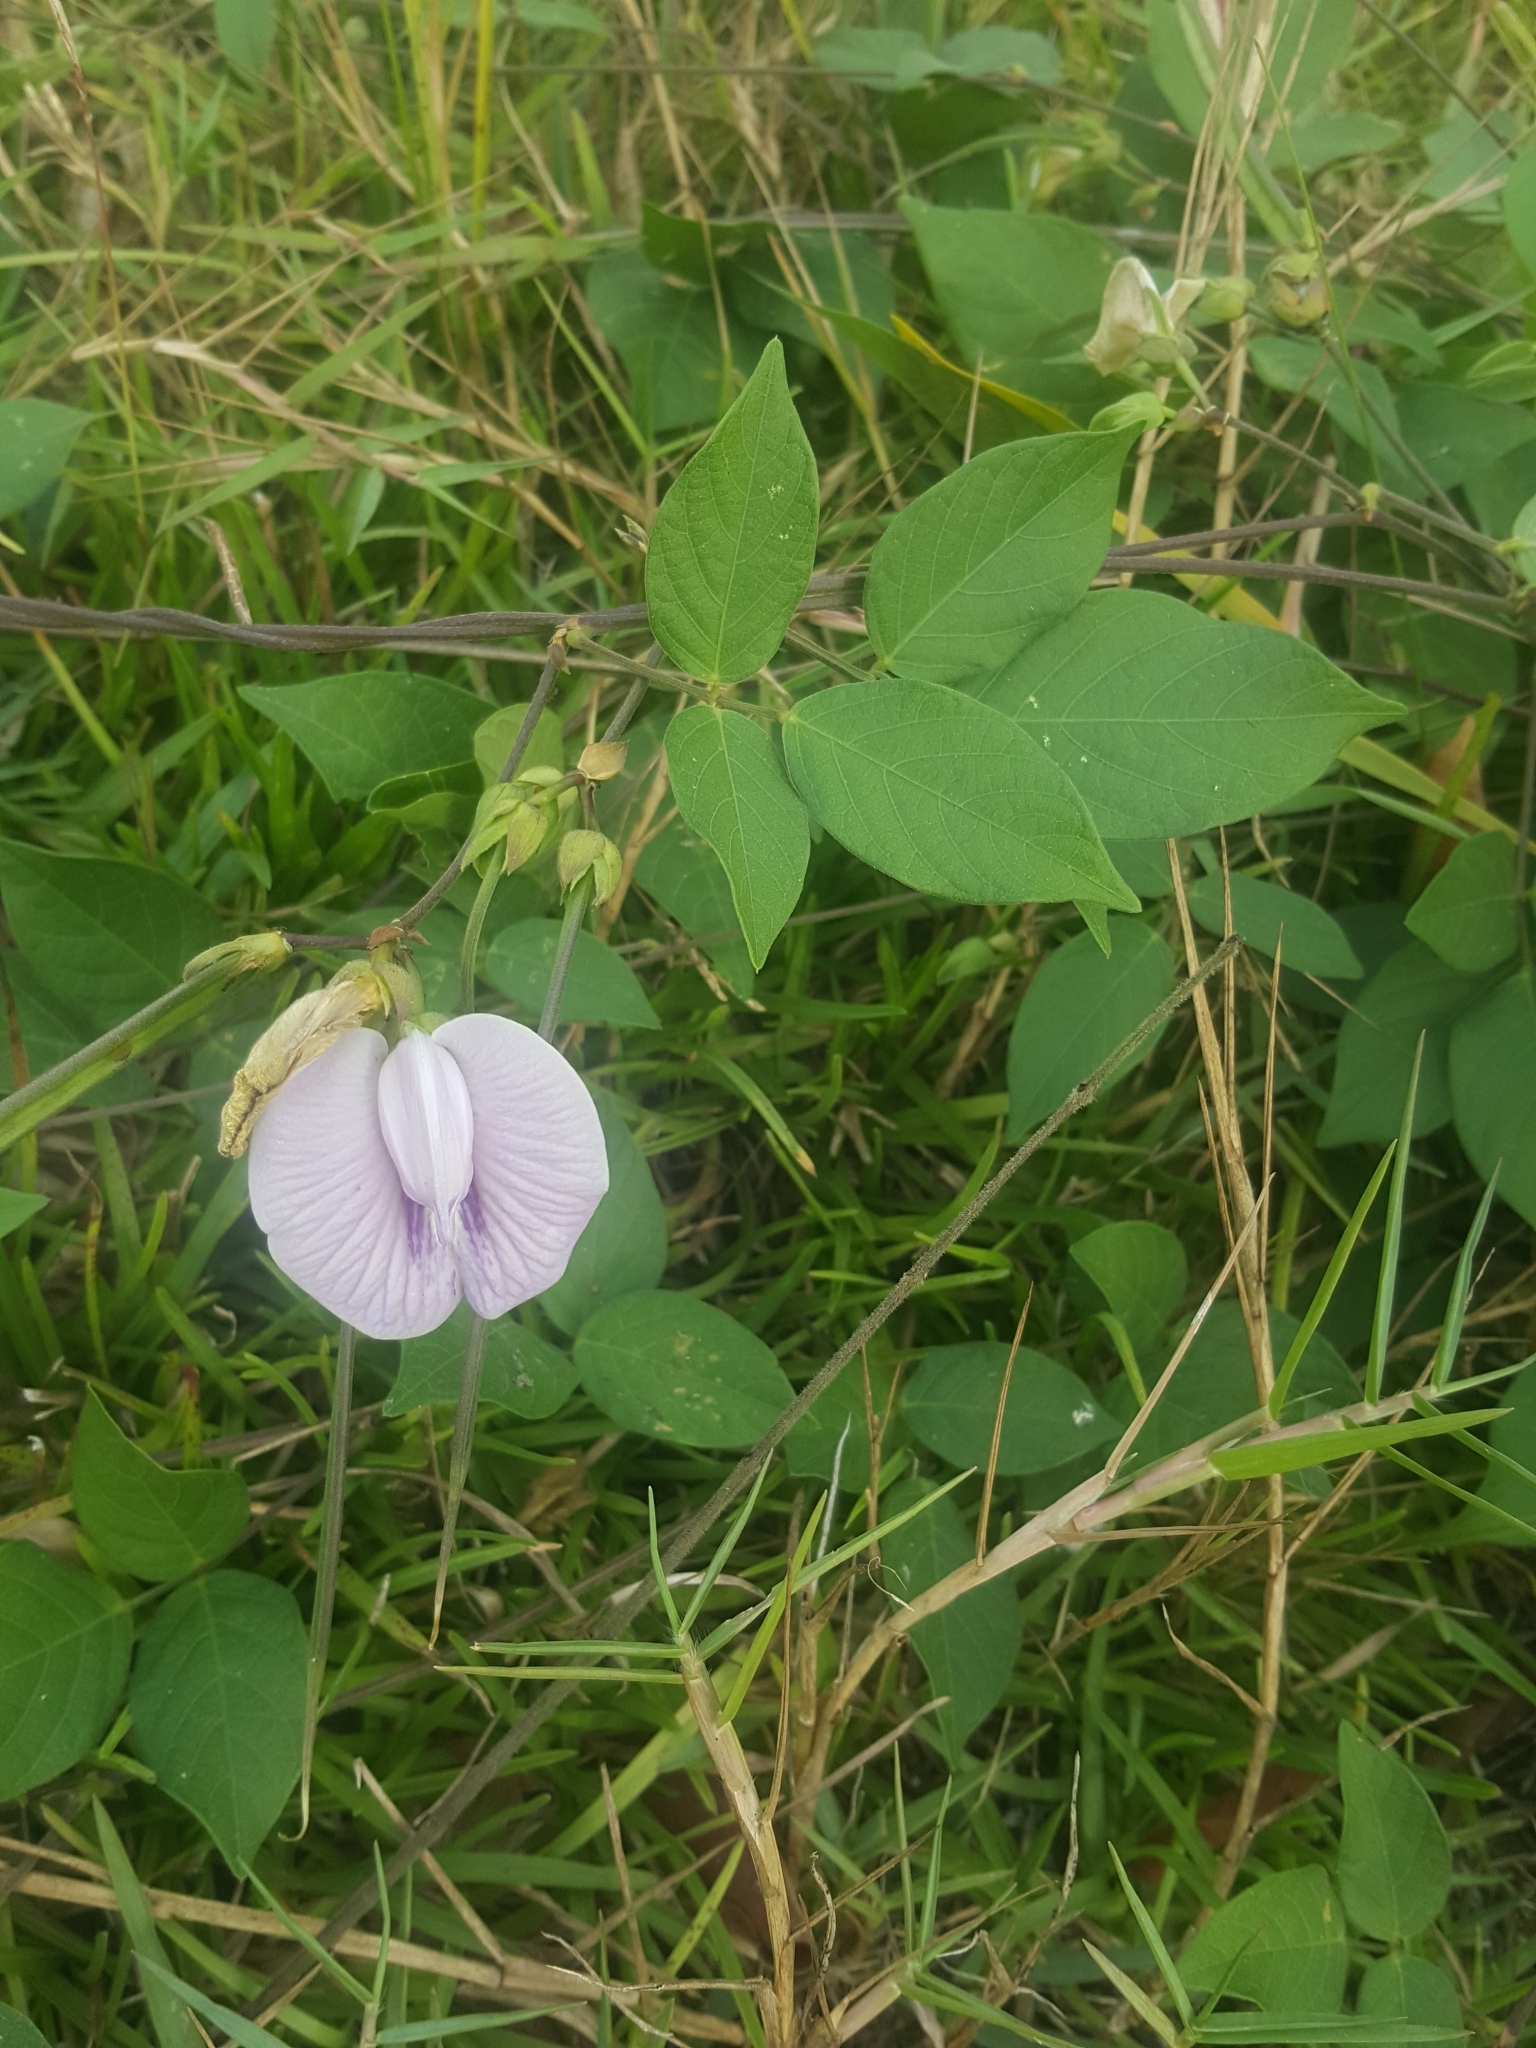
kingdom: Plantae
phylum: Tracheophyta
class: Magnoliopsida
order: Fabales
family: Fabaceae
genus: Centrosema
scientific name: Centrosema pubescens
